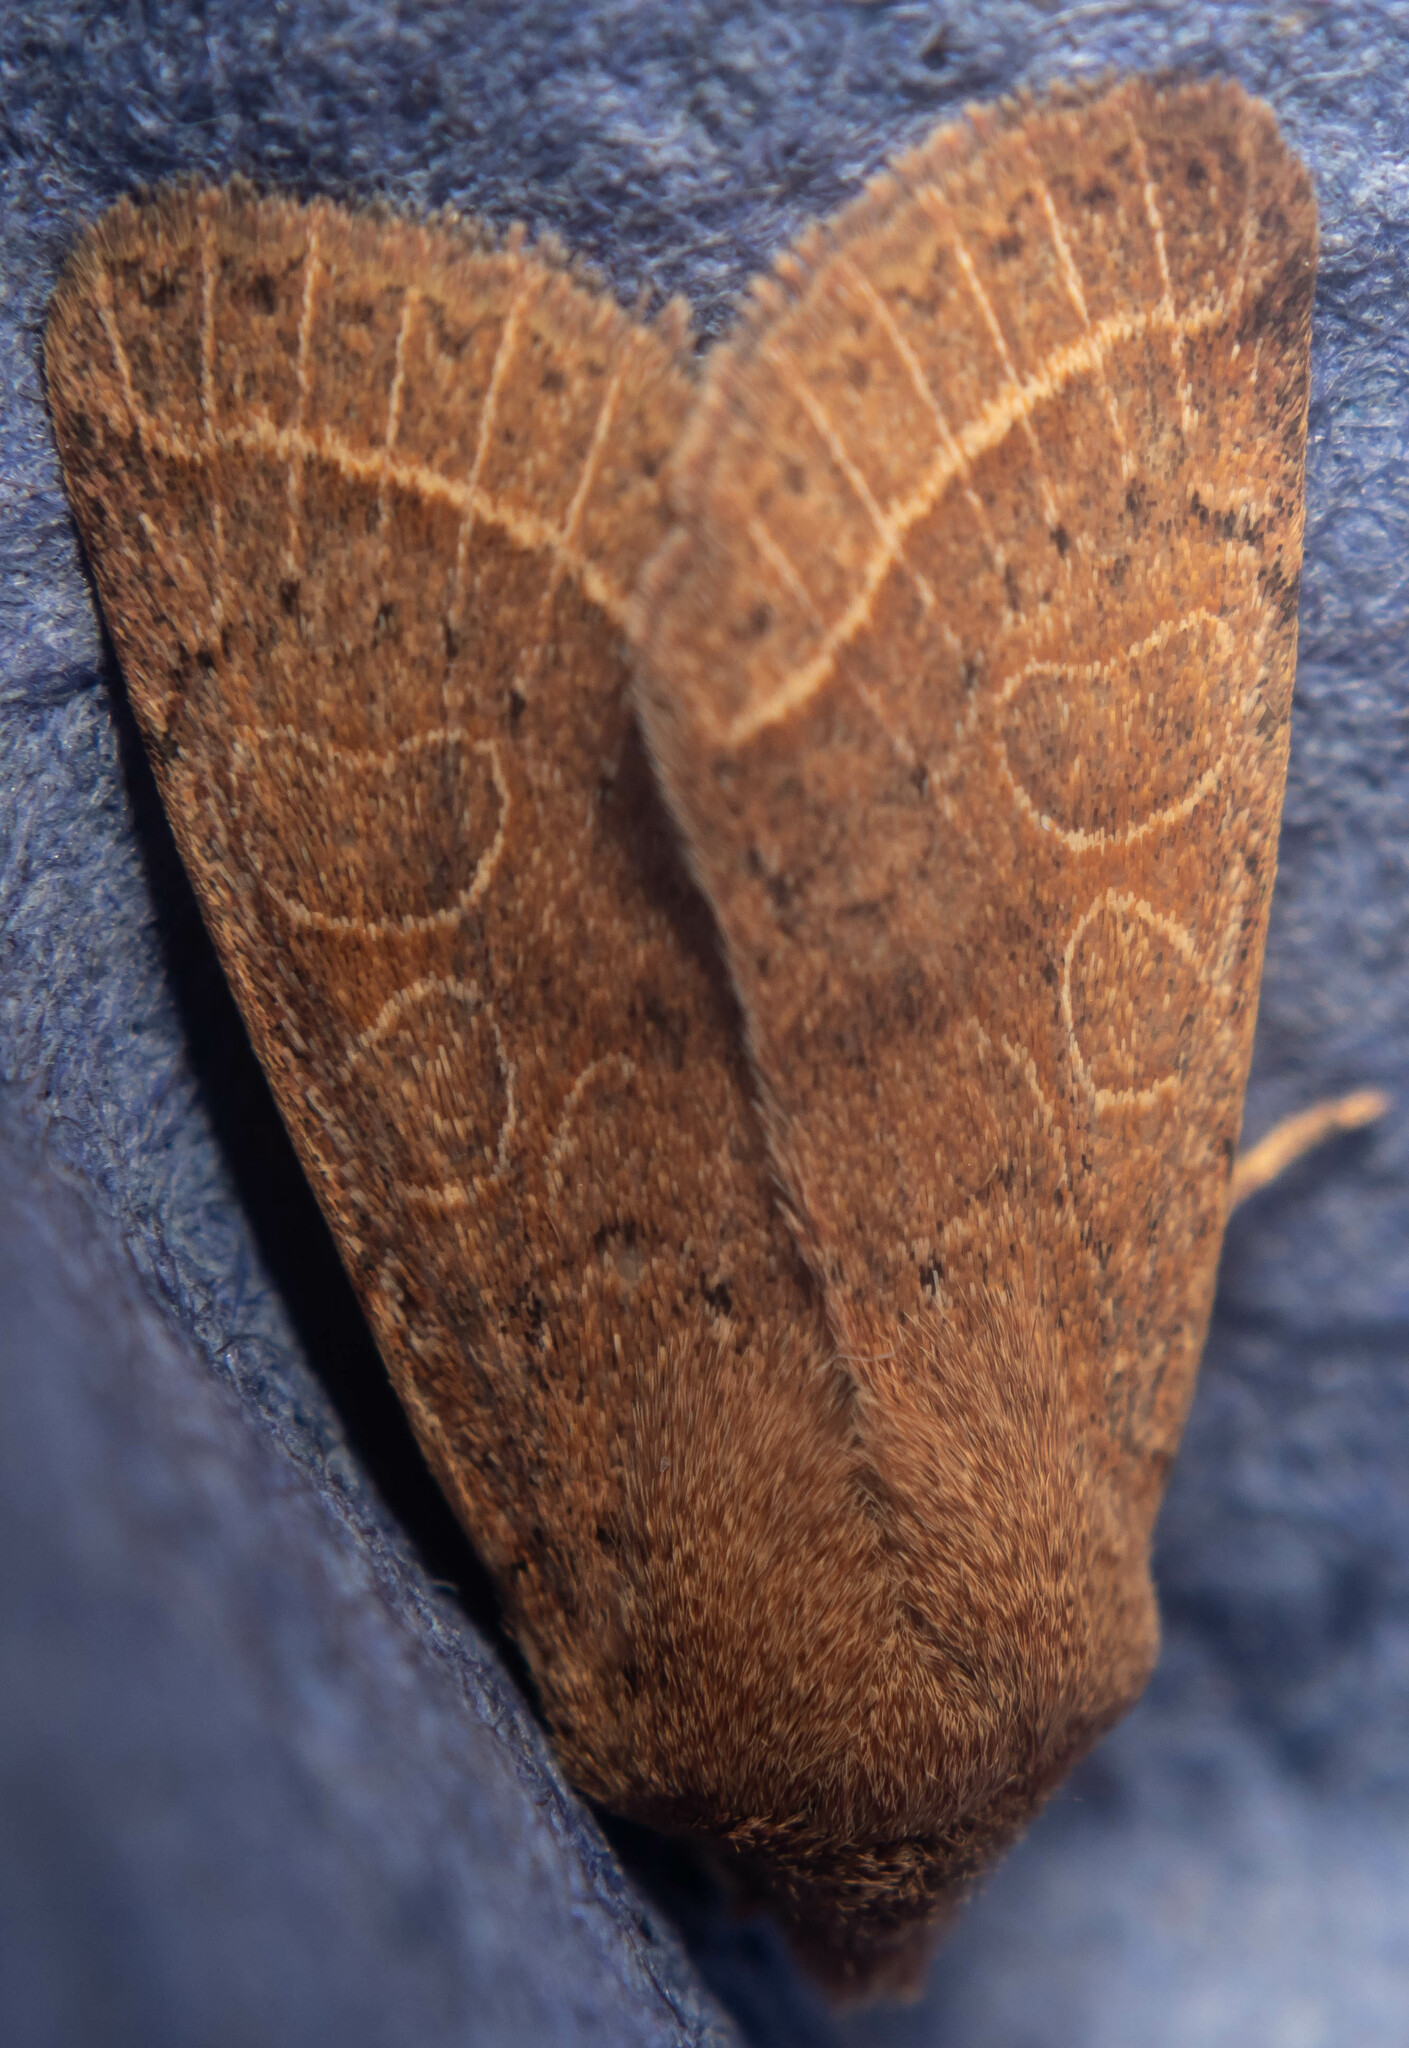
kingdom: Animalia
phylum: Arthropoda
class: Insecta
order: Lepidoptera
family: Noctuidae
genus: Orthosia
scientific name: Orthosia cerasi
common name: Common quaker
